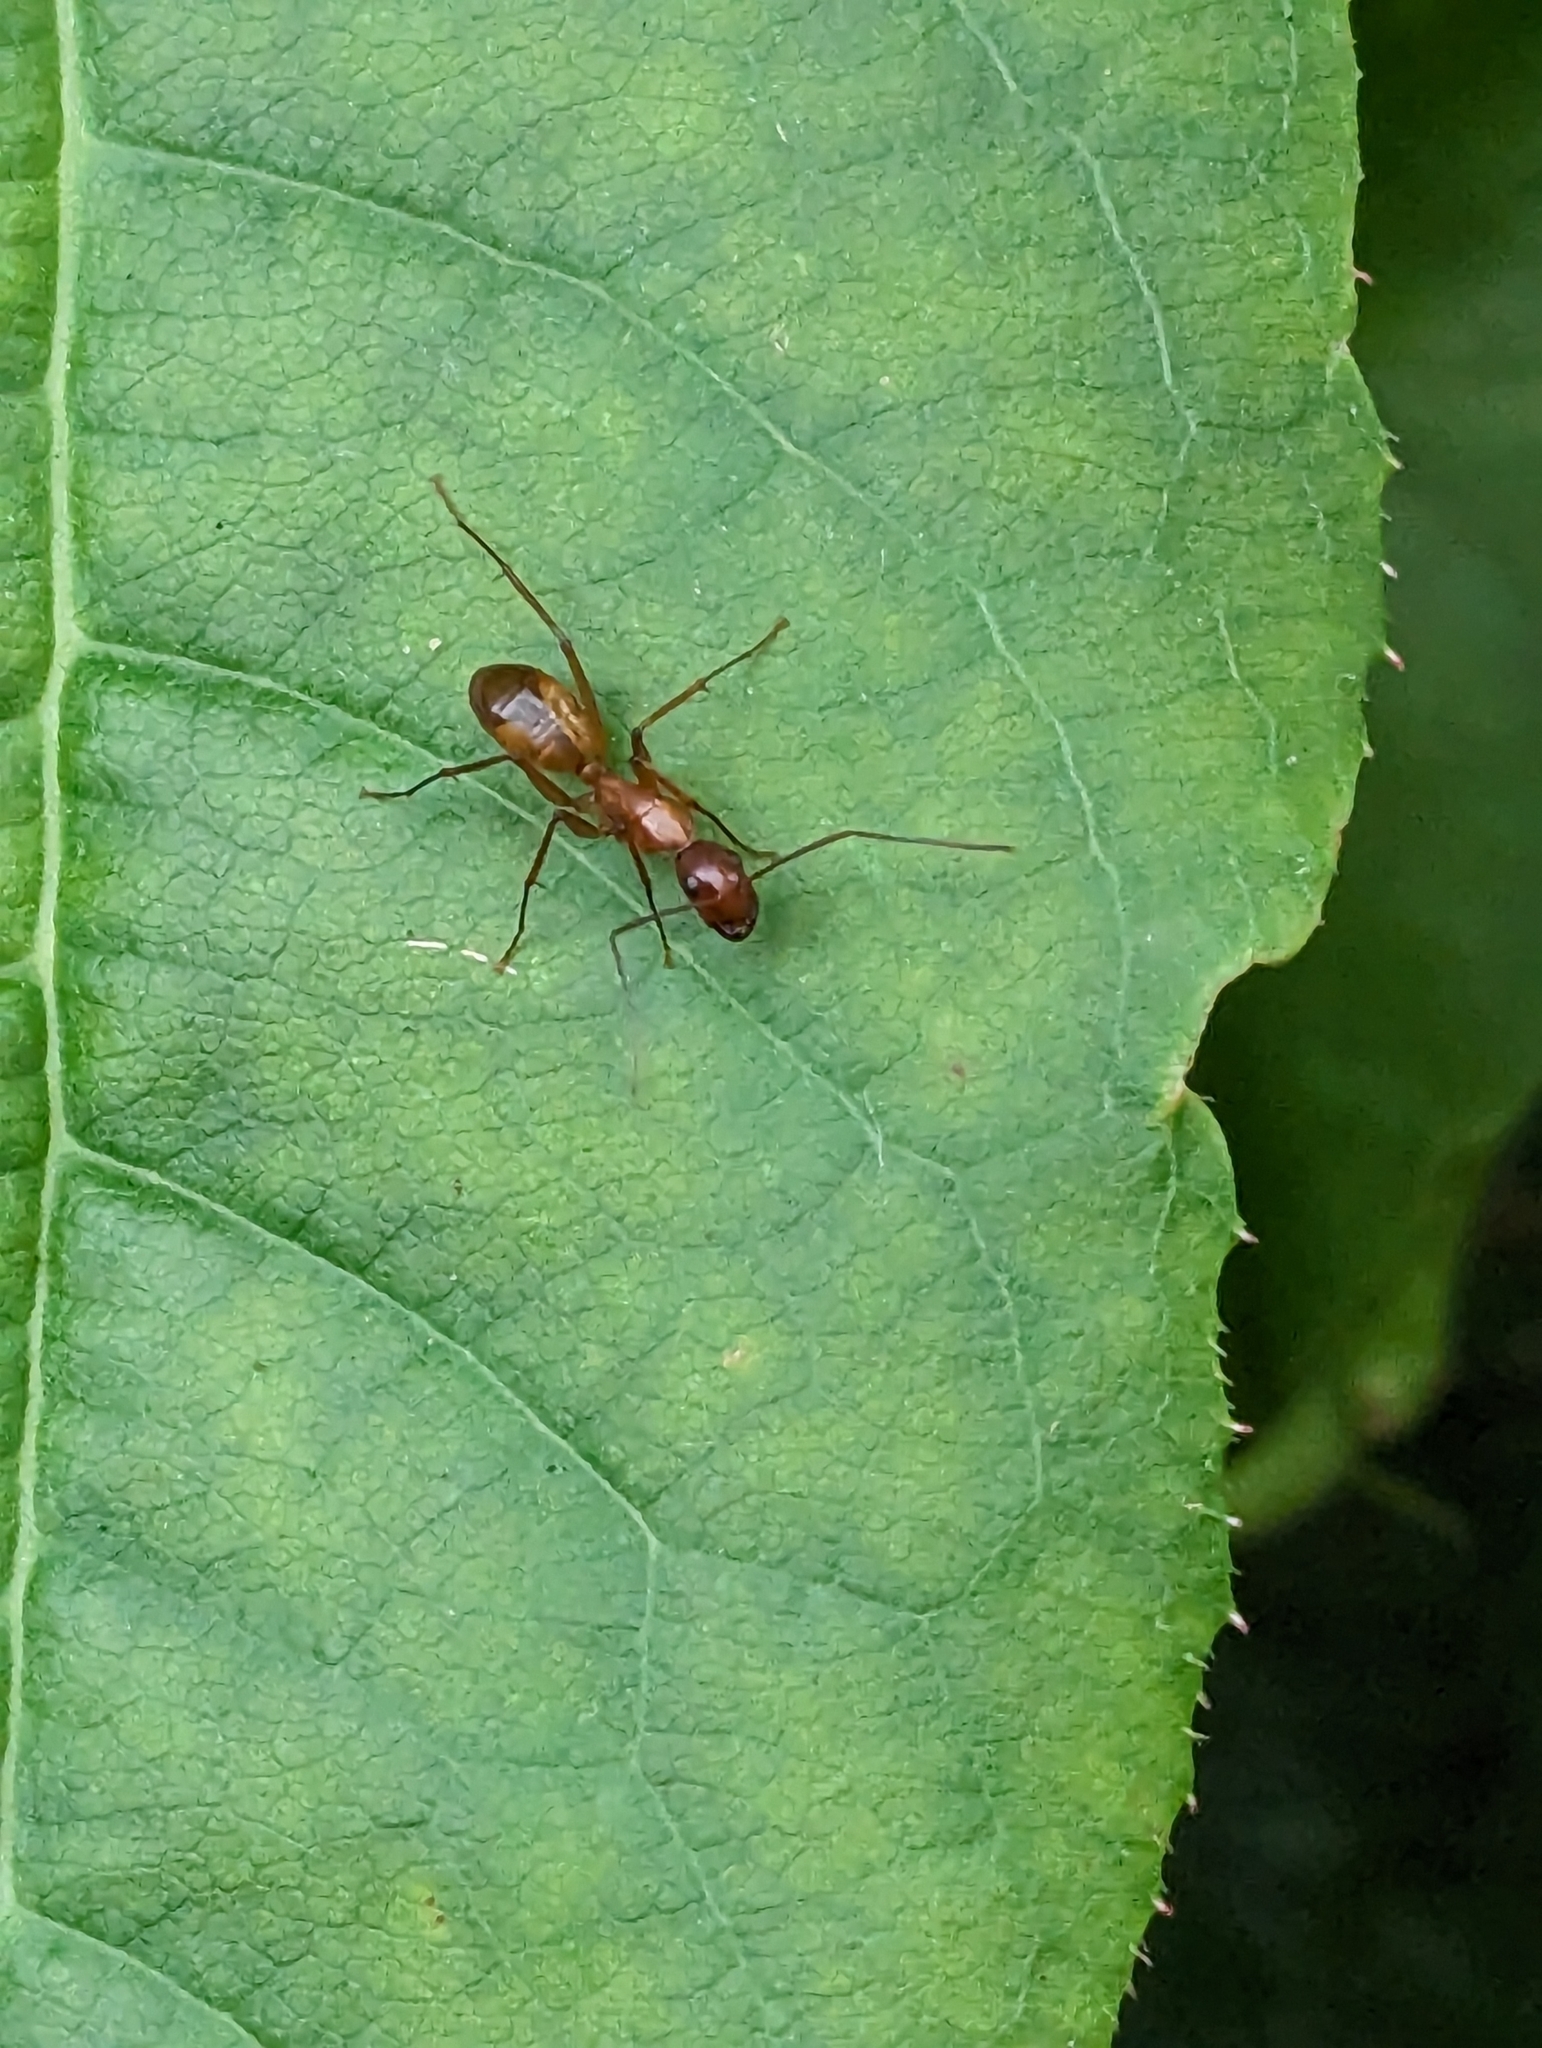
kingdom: Animalia
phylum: Arthropoda
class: Insecta
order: Hymenoptera
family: Formicidae
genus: Camponotus
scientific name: Camponotus castaneus
